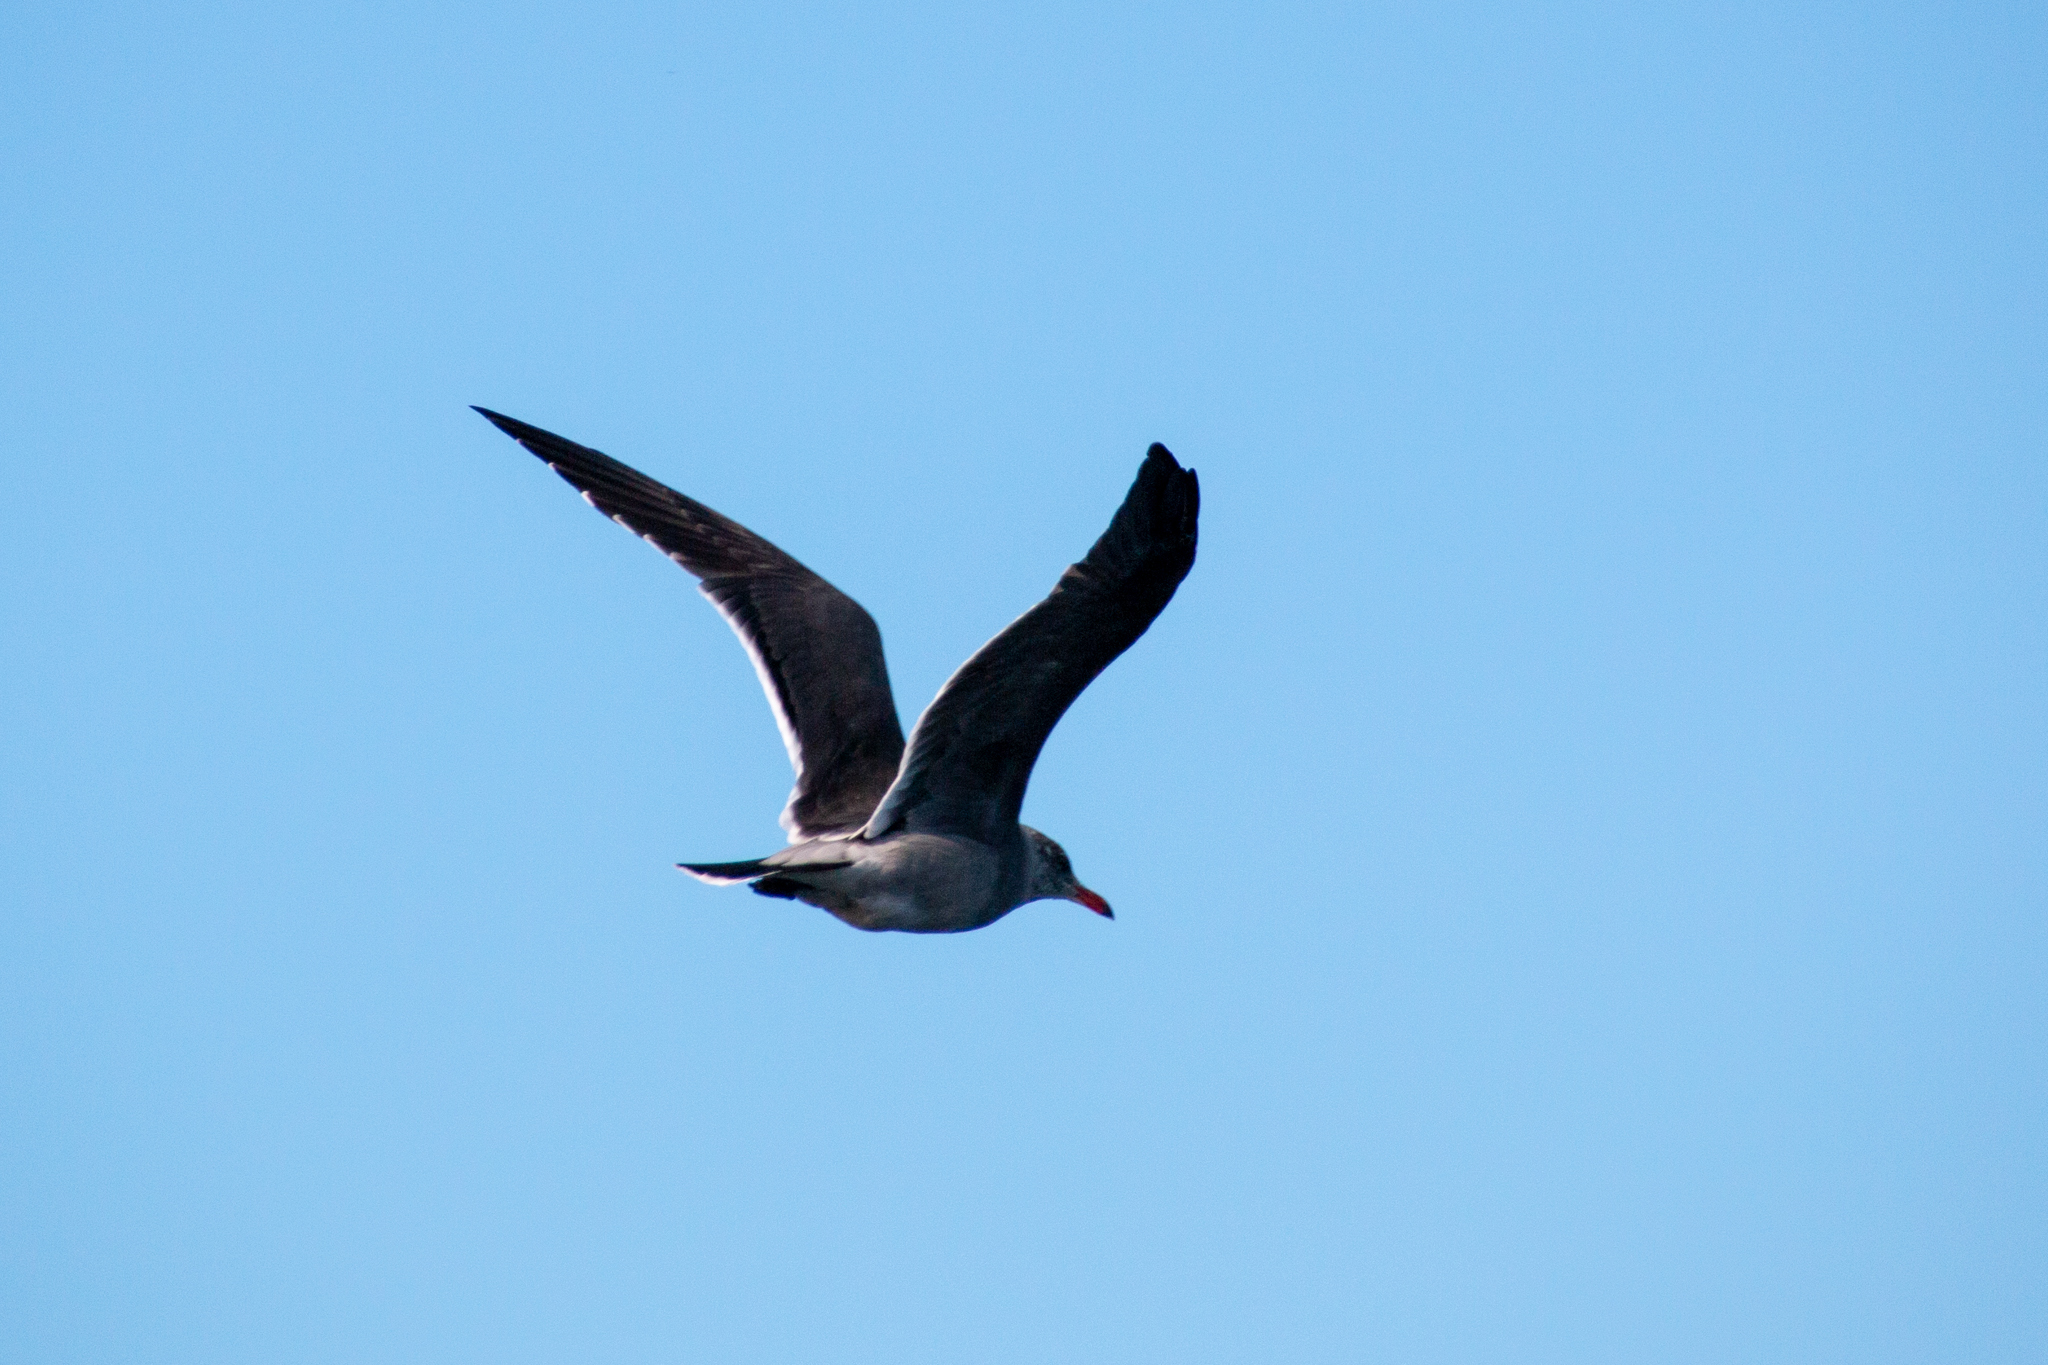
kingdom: Animalia
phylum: Chordata
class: Aves
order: Charadriiformes
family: Laridae
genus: Larus
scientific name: Larus heermanni
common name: Heermann's gull
